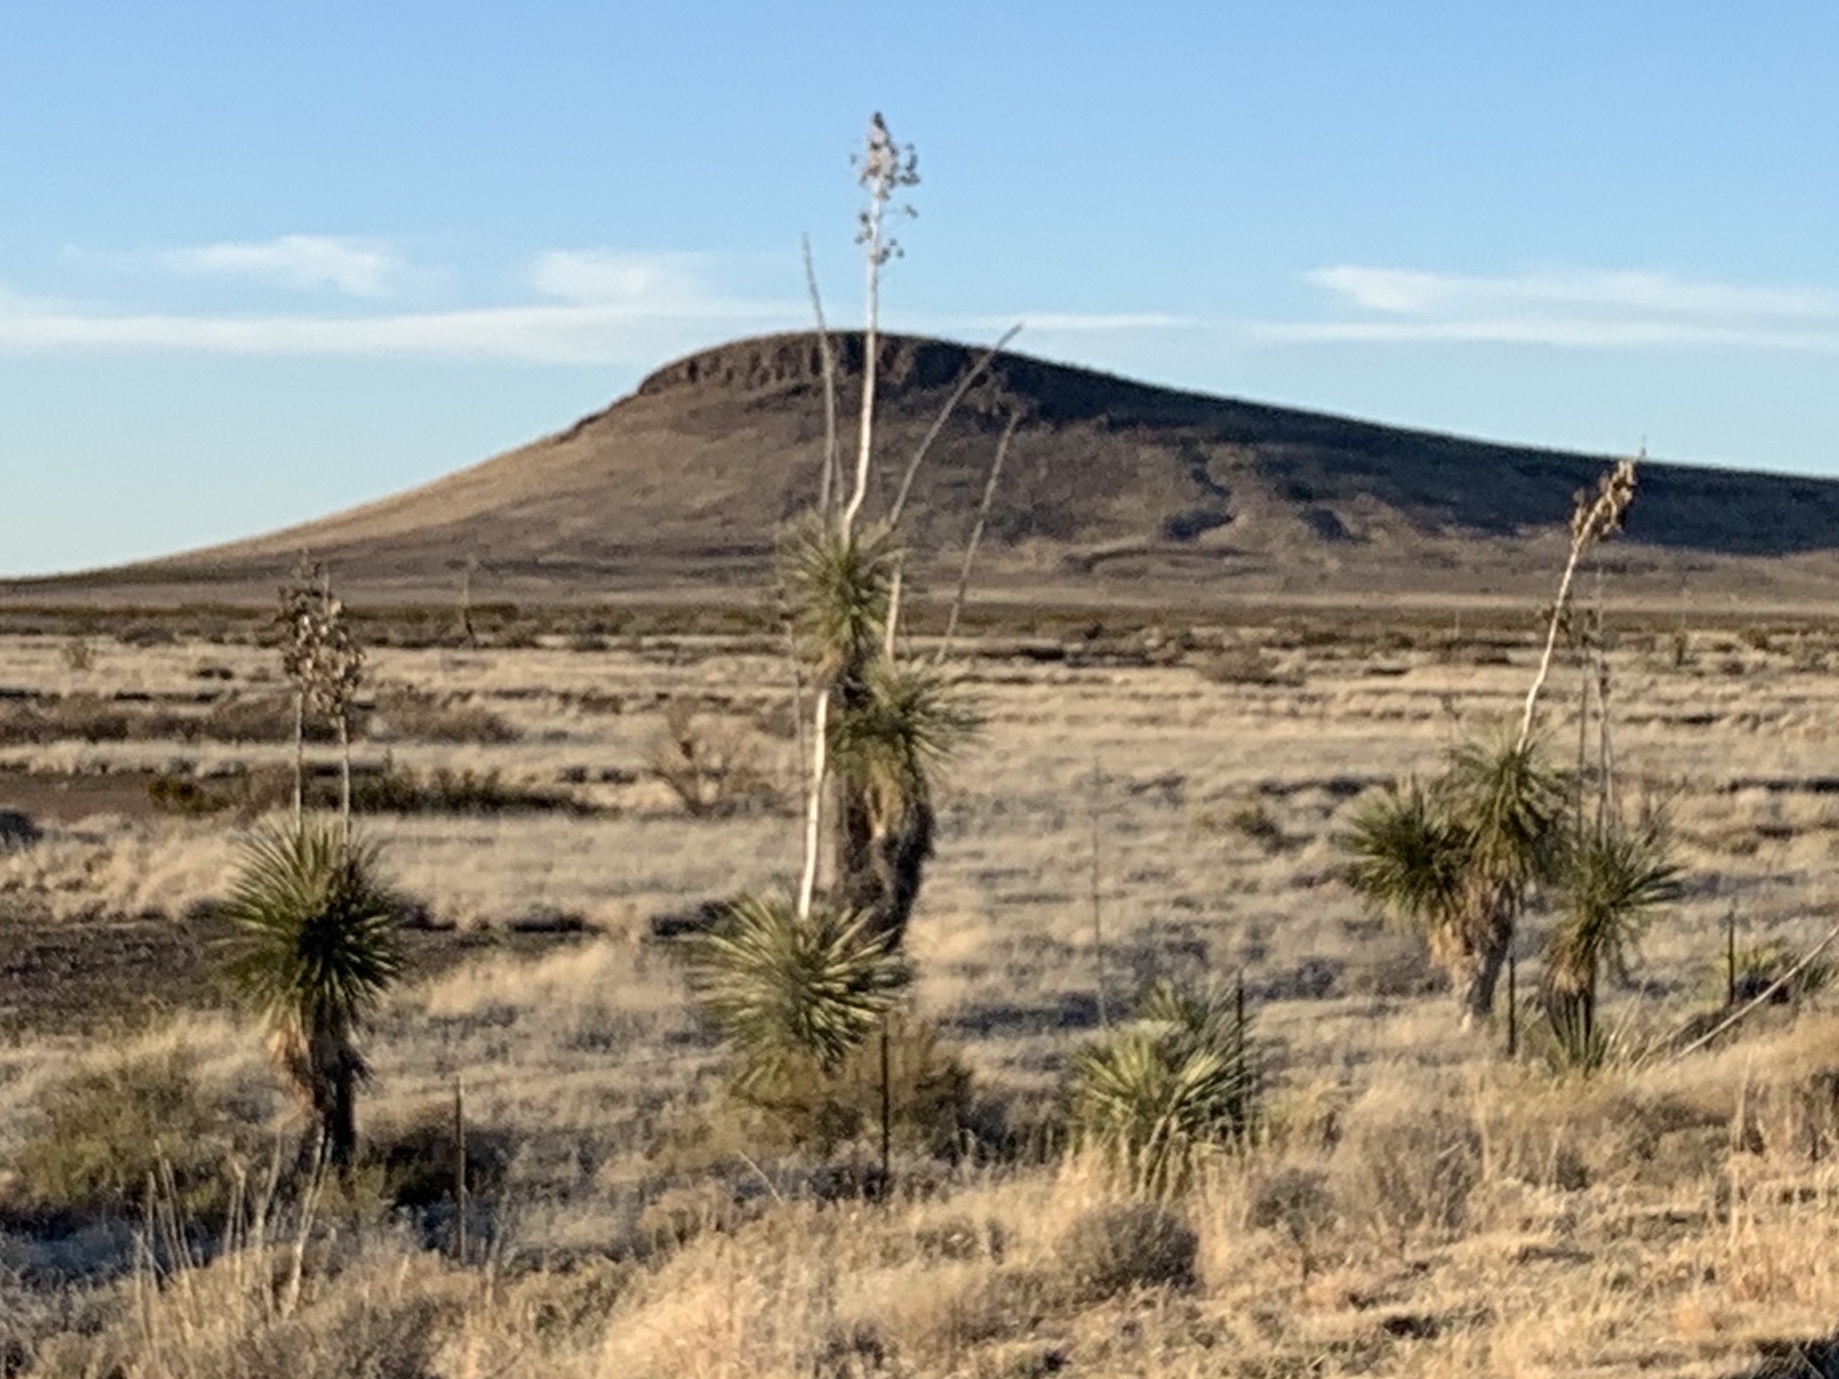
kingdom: Plantae
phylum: Tracheophyta
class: Liliopsida
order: Asparagales
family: Asparagaceae
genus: Yucca
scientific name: Yucca elata
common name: Palmella
